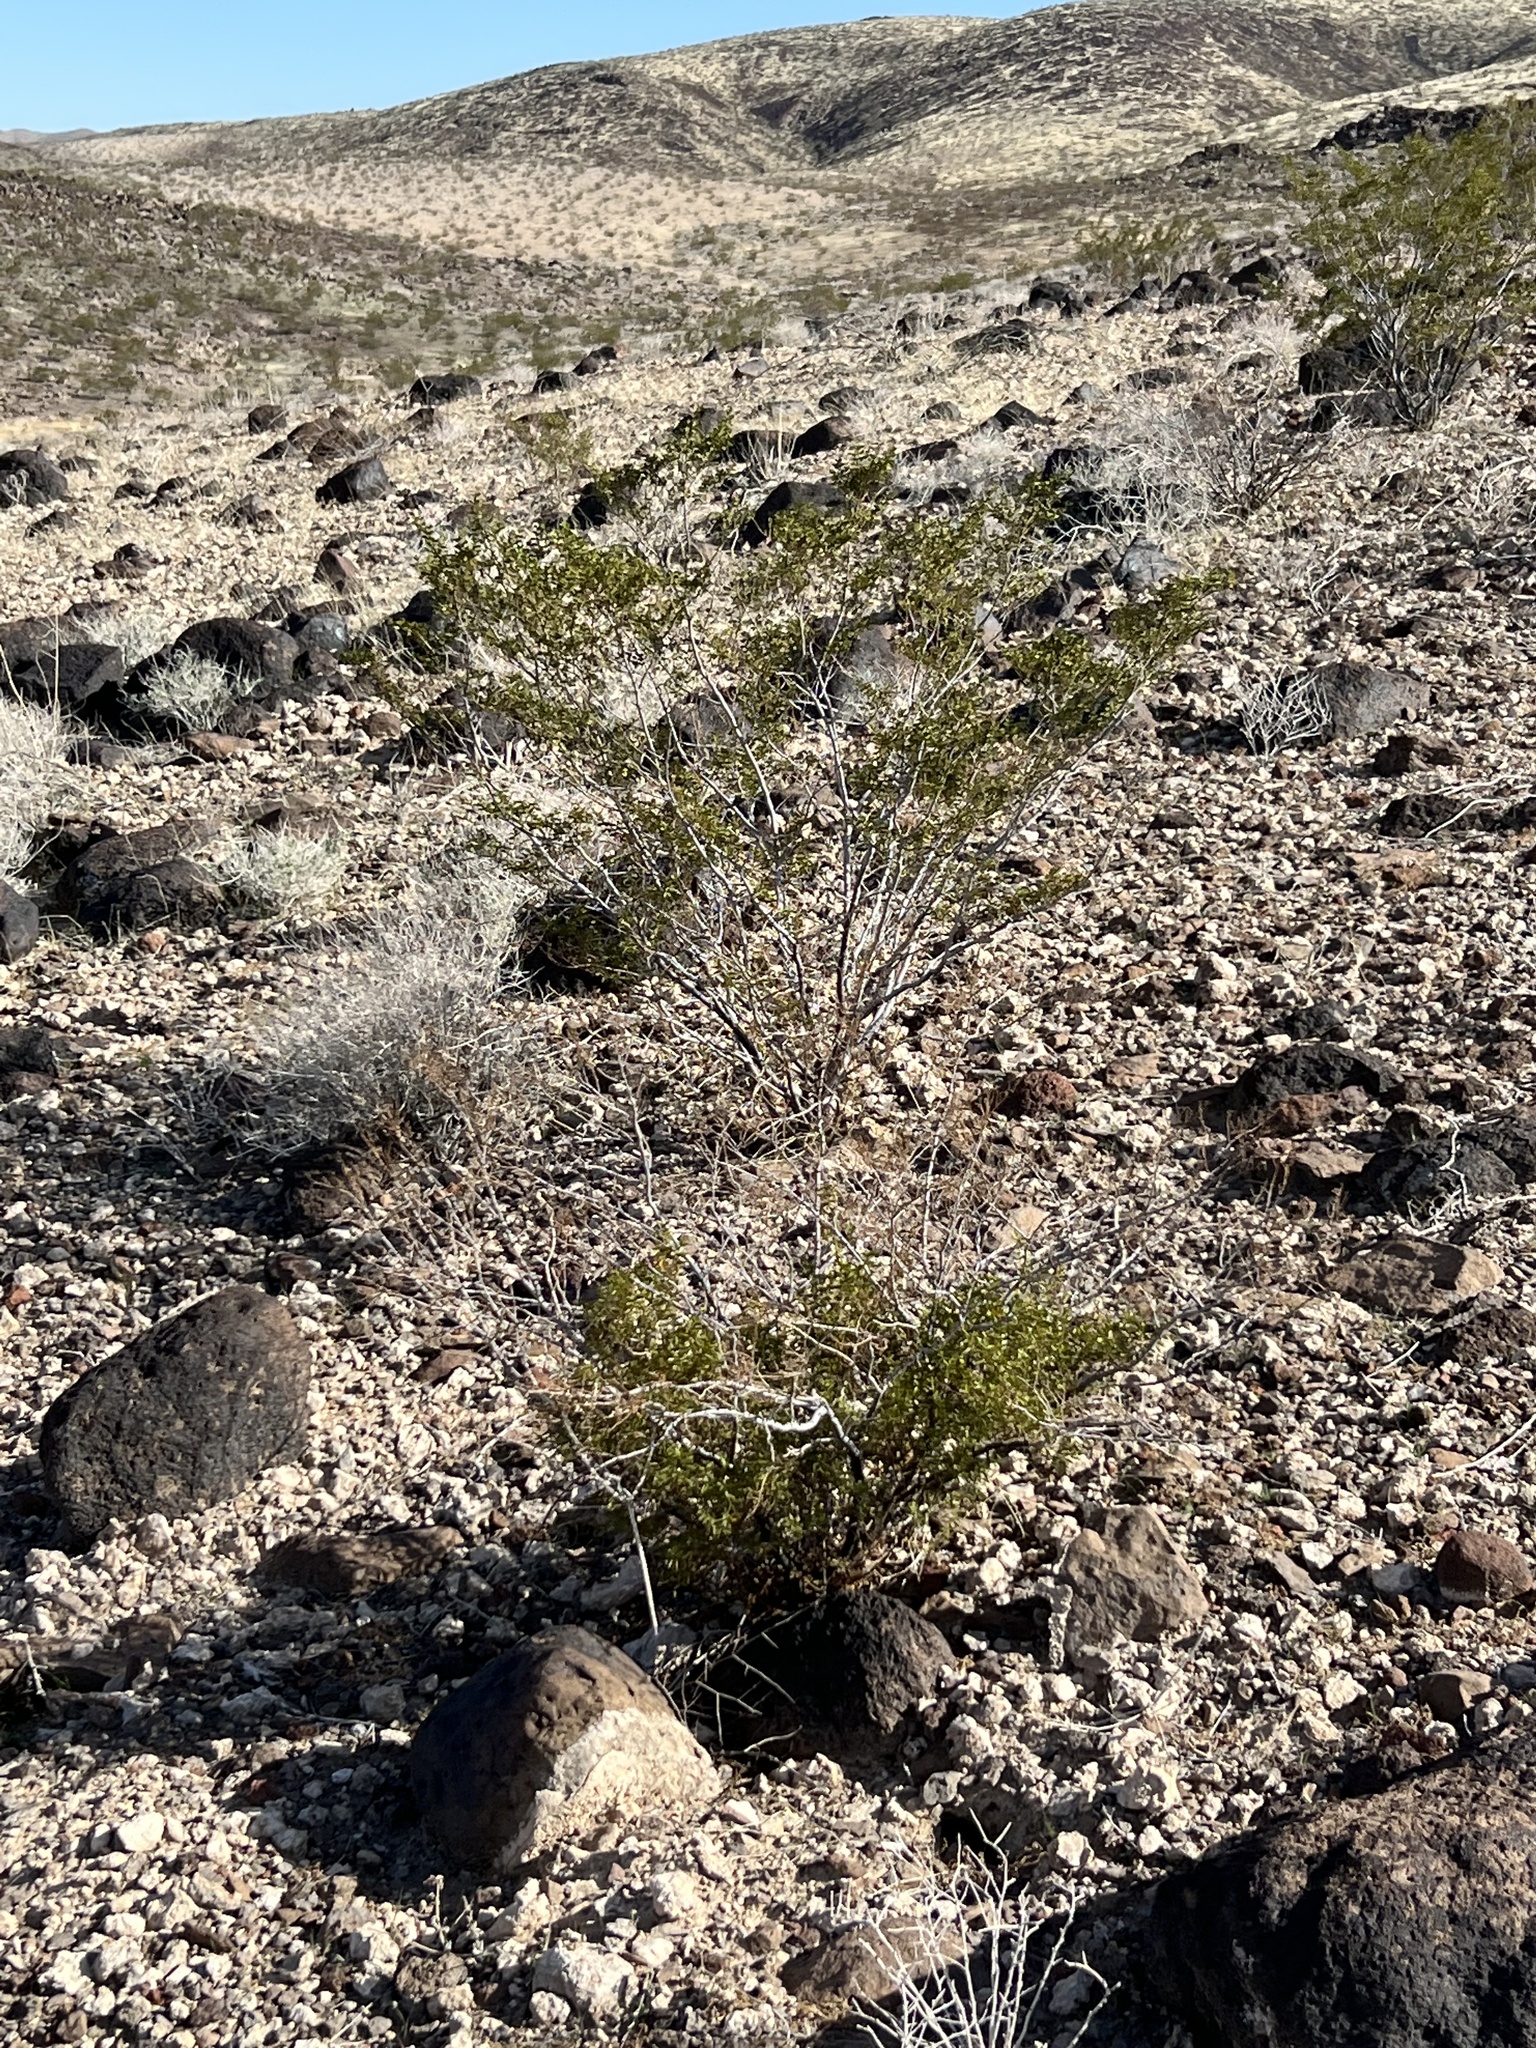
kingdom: Plantae
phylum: Tracheophyta
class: Magnoliopsida
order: Zygophyllales
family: Zygophyllaceae
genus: Larrea
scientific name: Larrea tridentata
